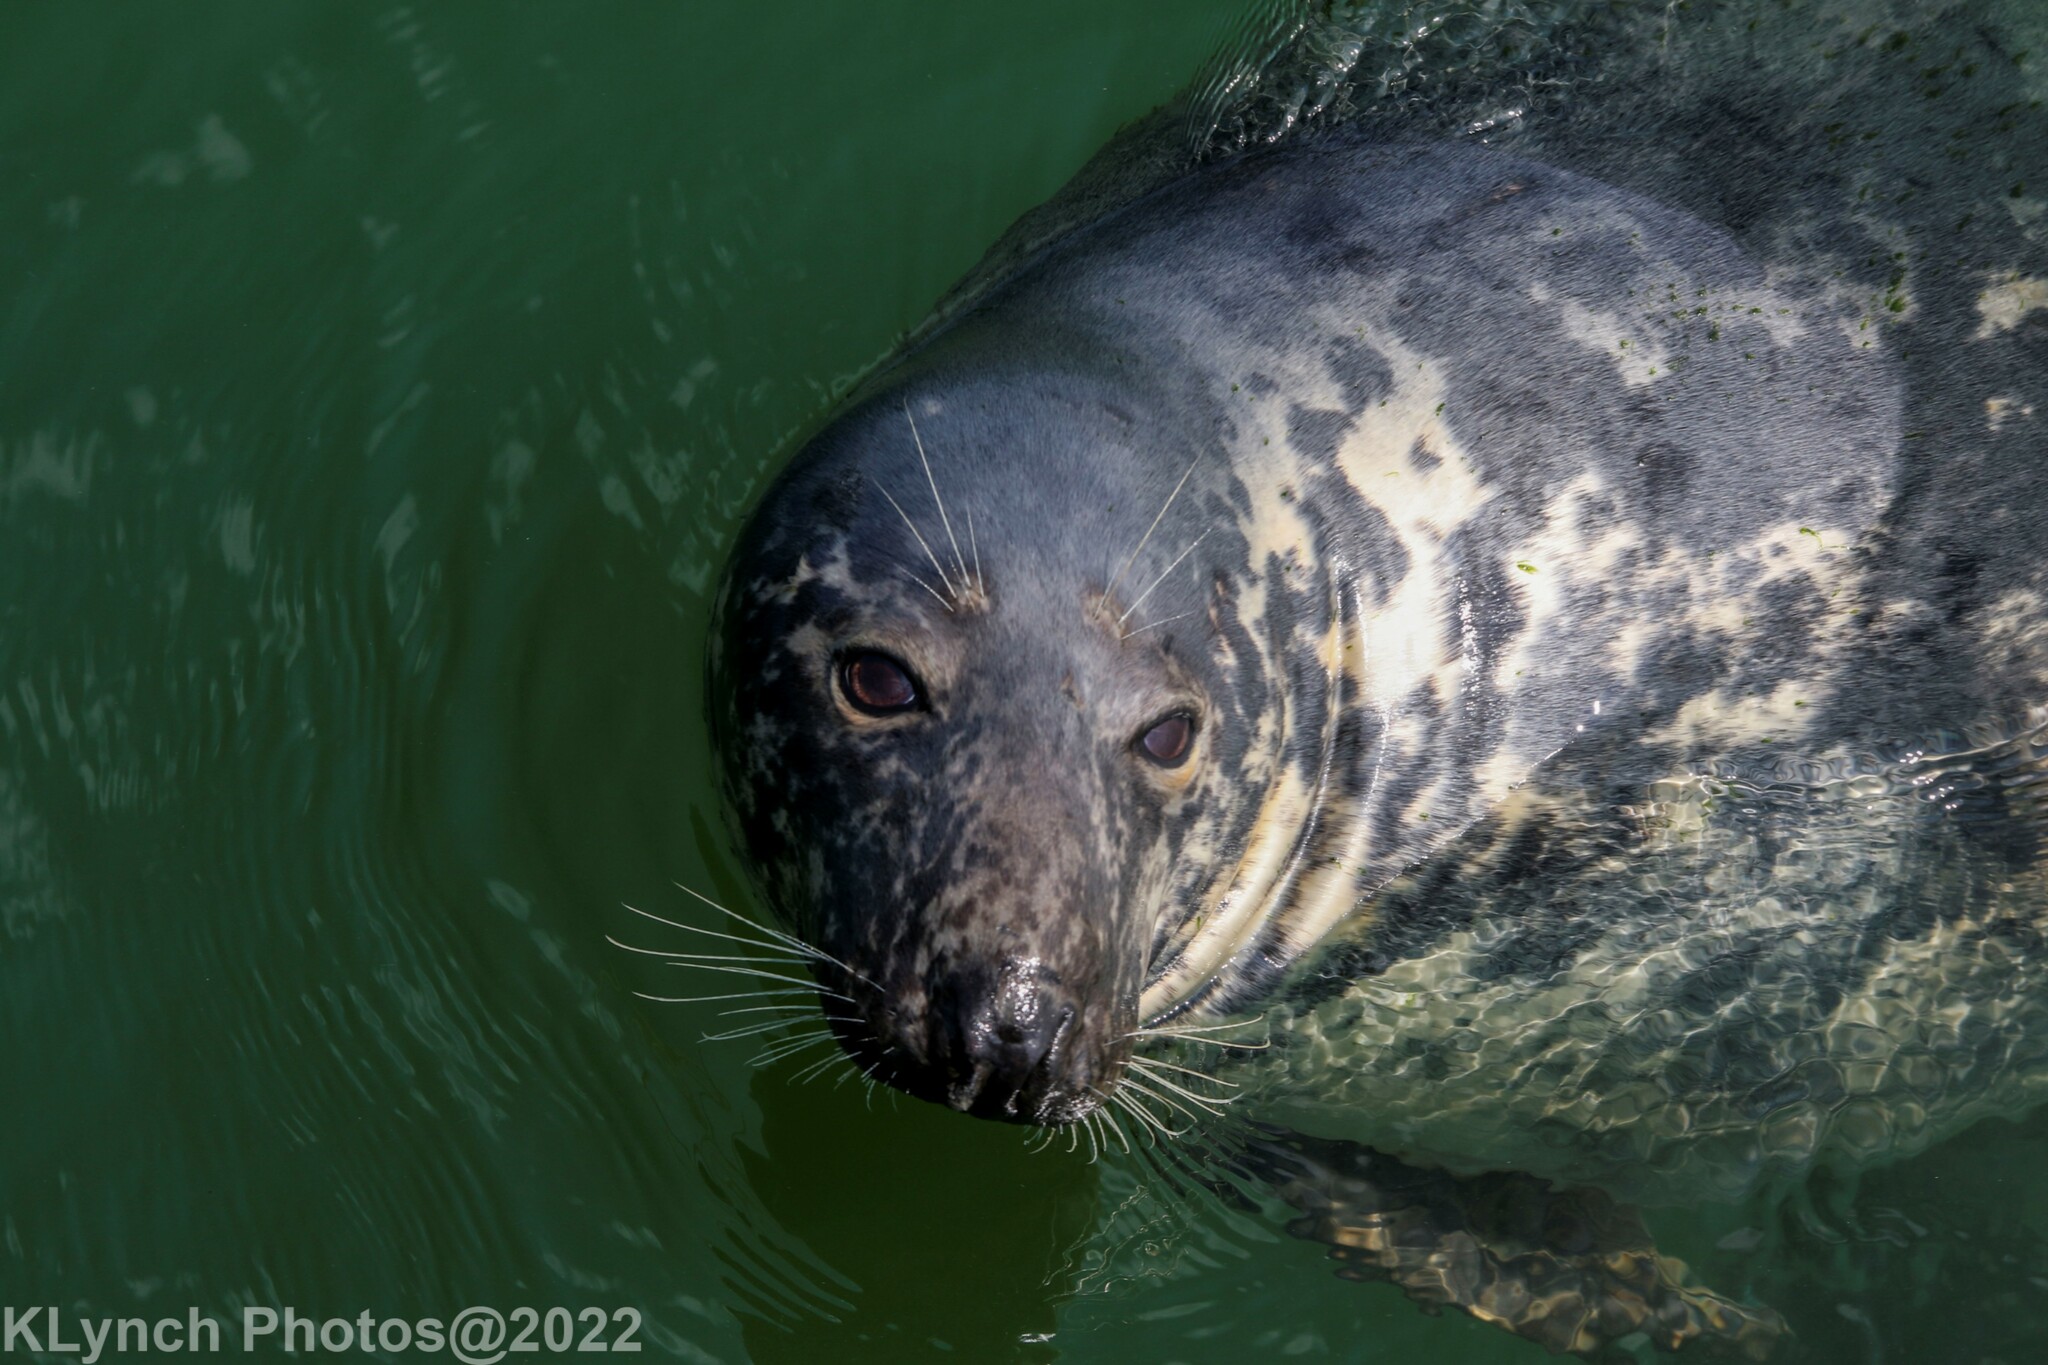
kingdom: Animalia
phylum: Chordata
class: Mammalia
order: Carnivora
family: Phocidae
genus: Halichoerus
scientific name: Halichoerus grypus
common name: Grey seal
